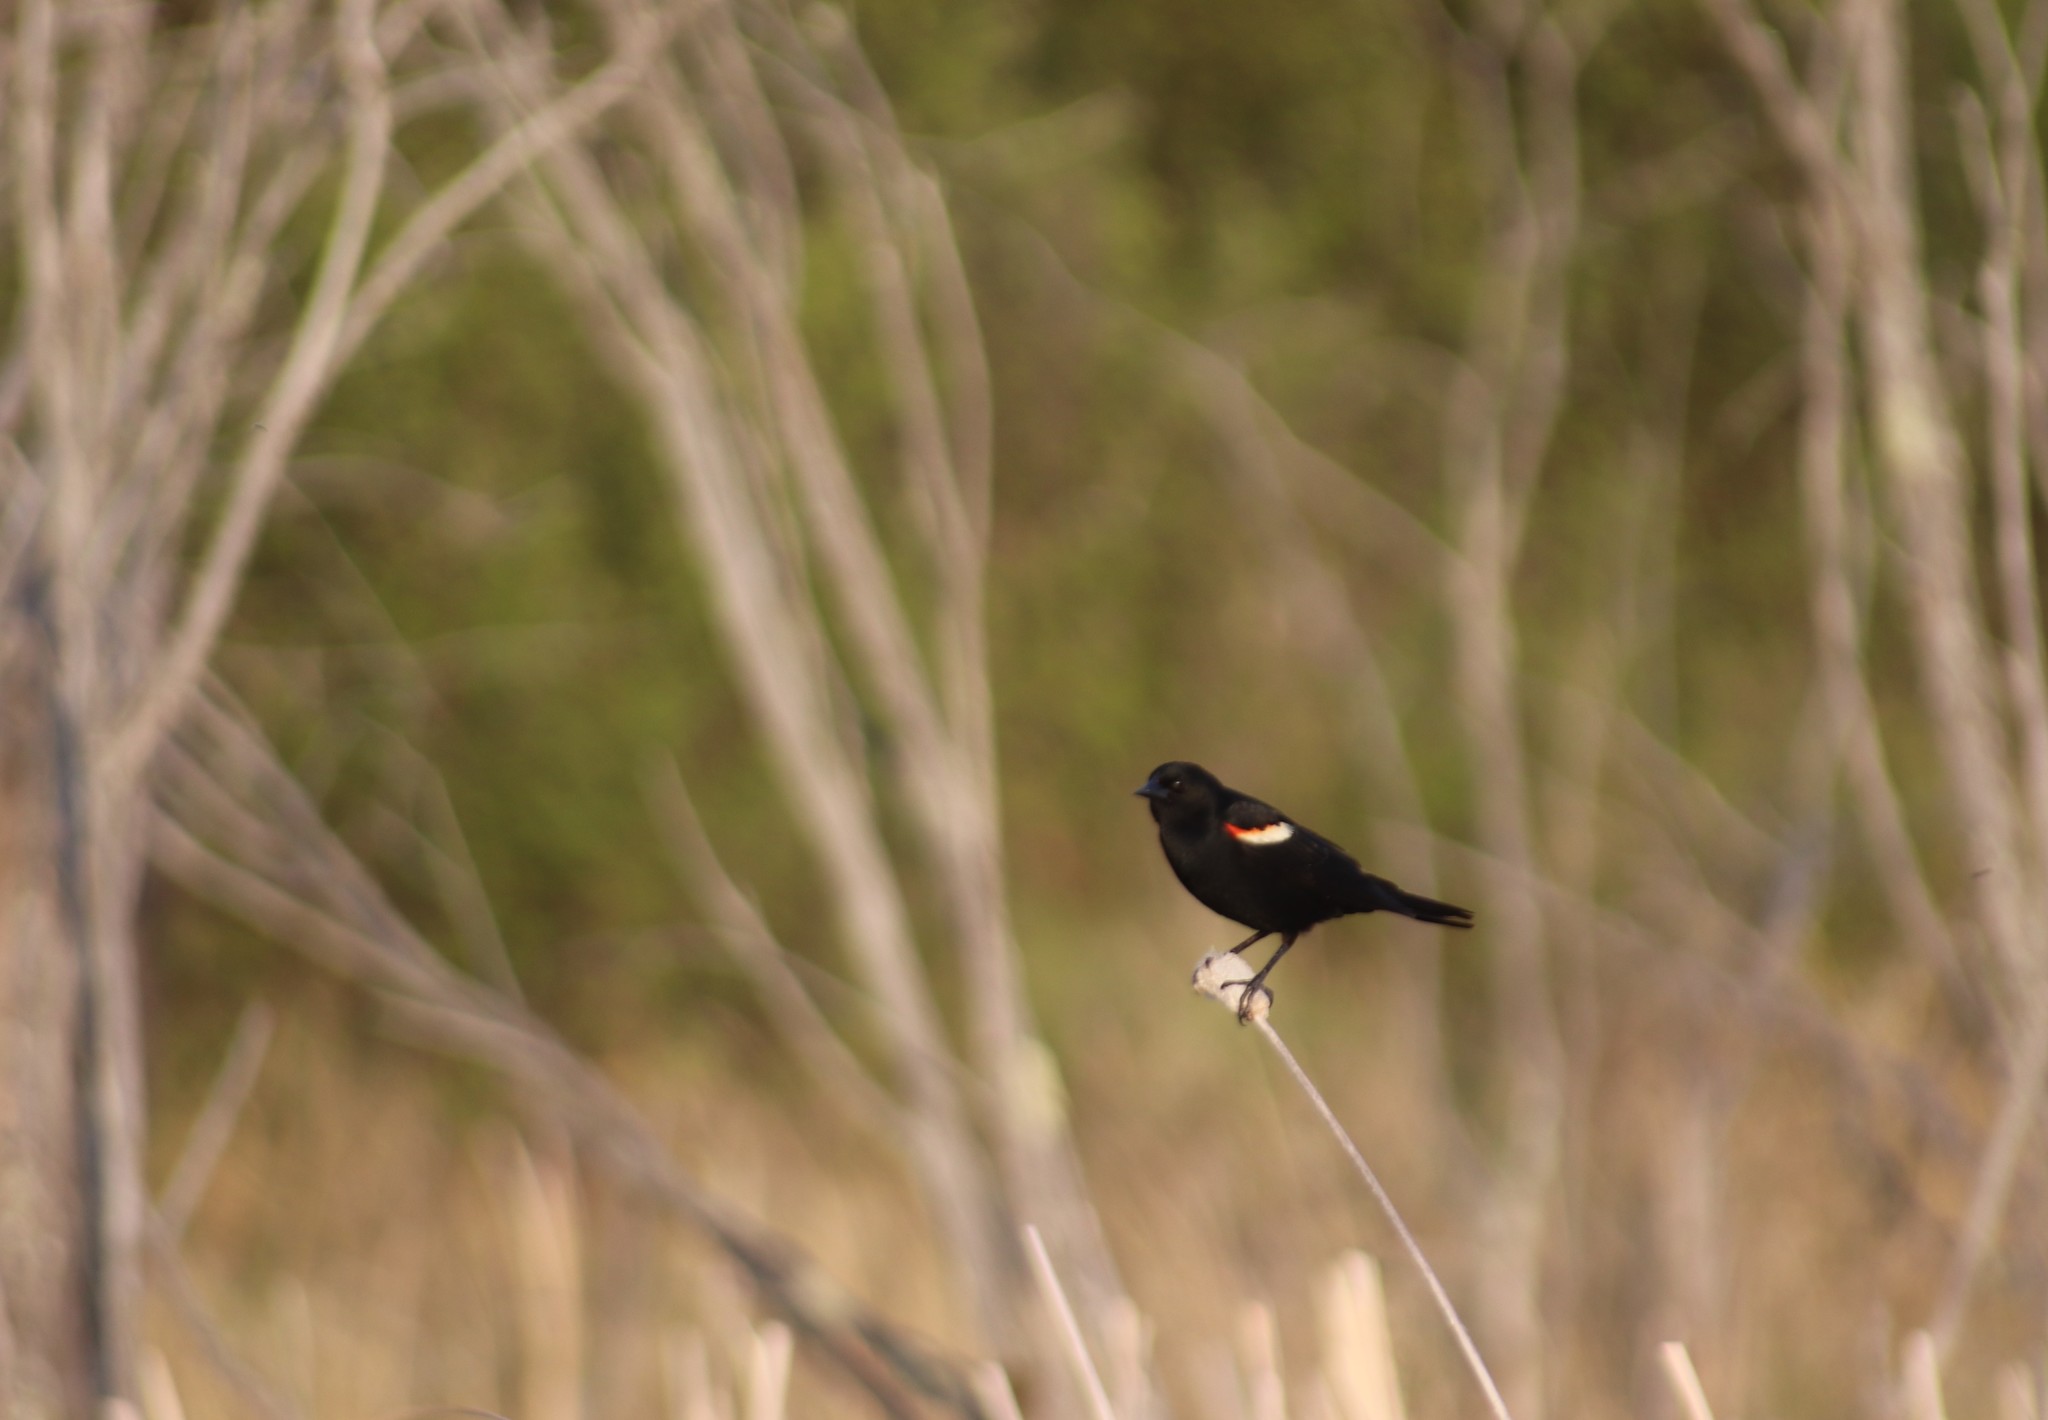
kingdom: Animalia
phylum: Chordata
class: Aves
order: Passeriformes
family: Icteridae
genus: Agelaius
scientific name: Agelaius phoeniceus
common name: Red-winged blackbird
